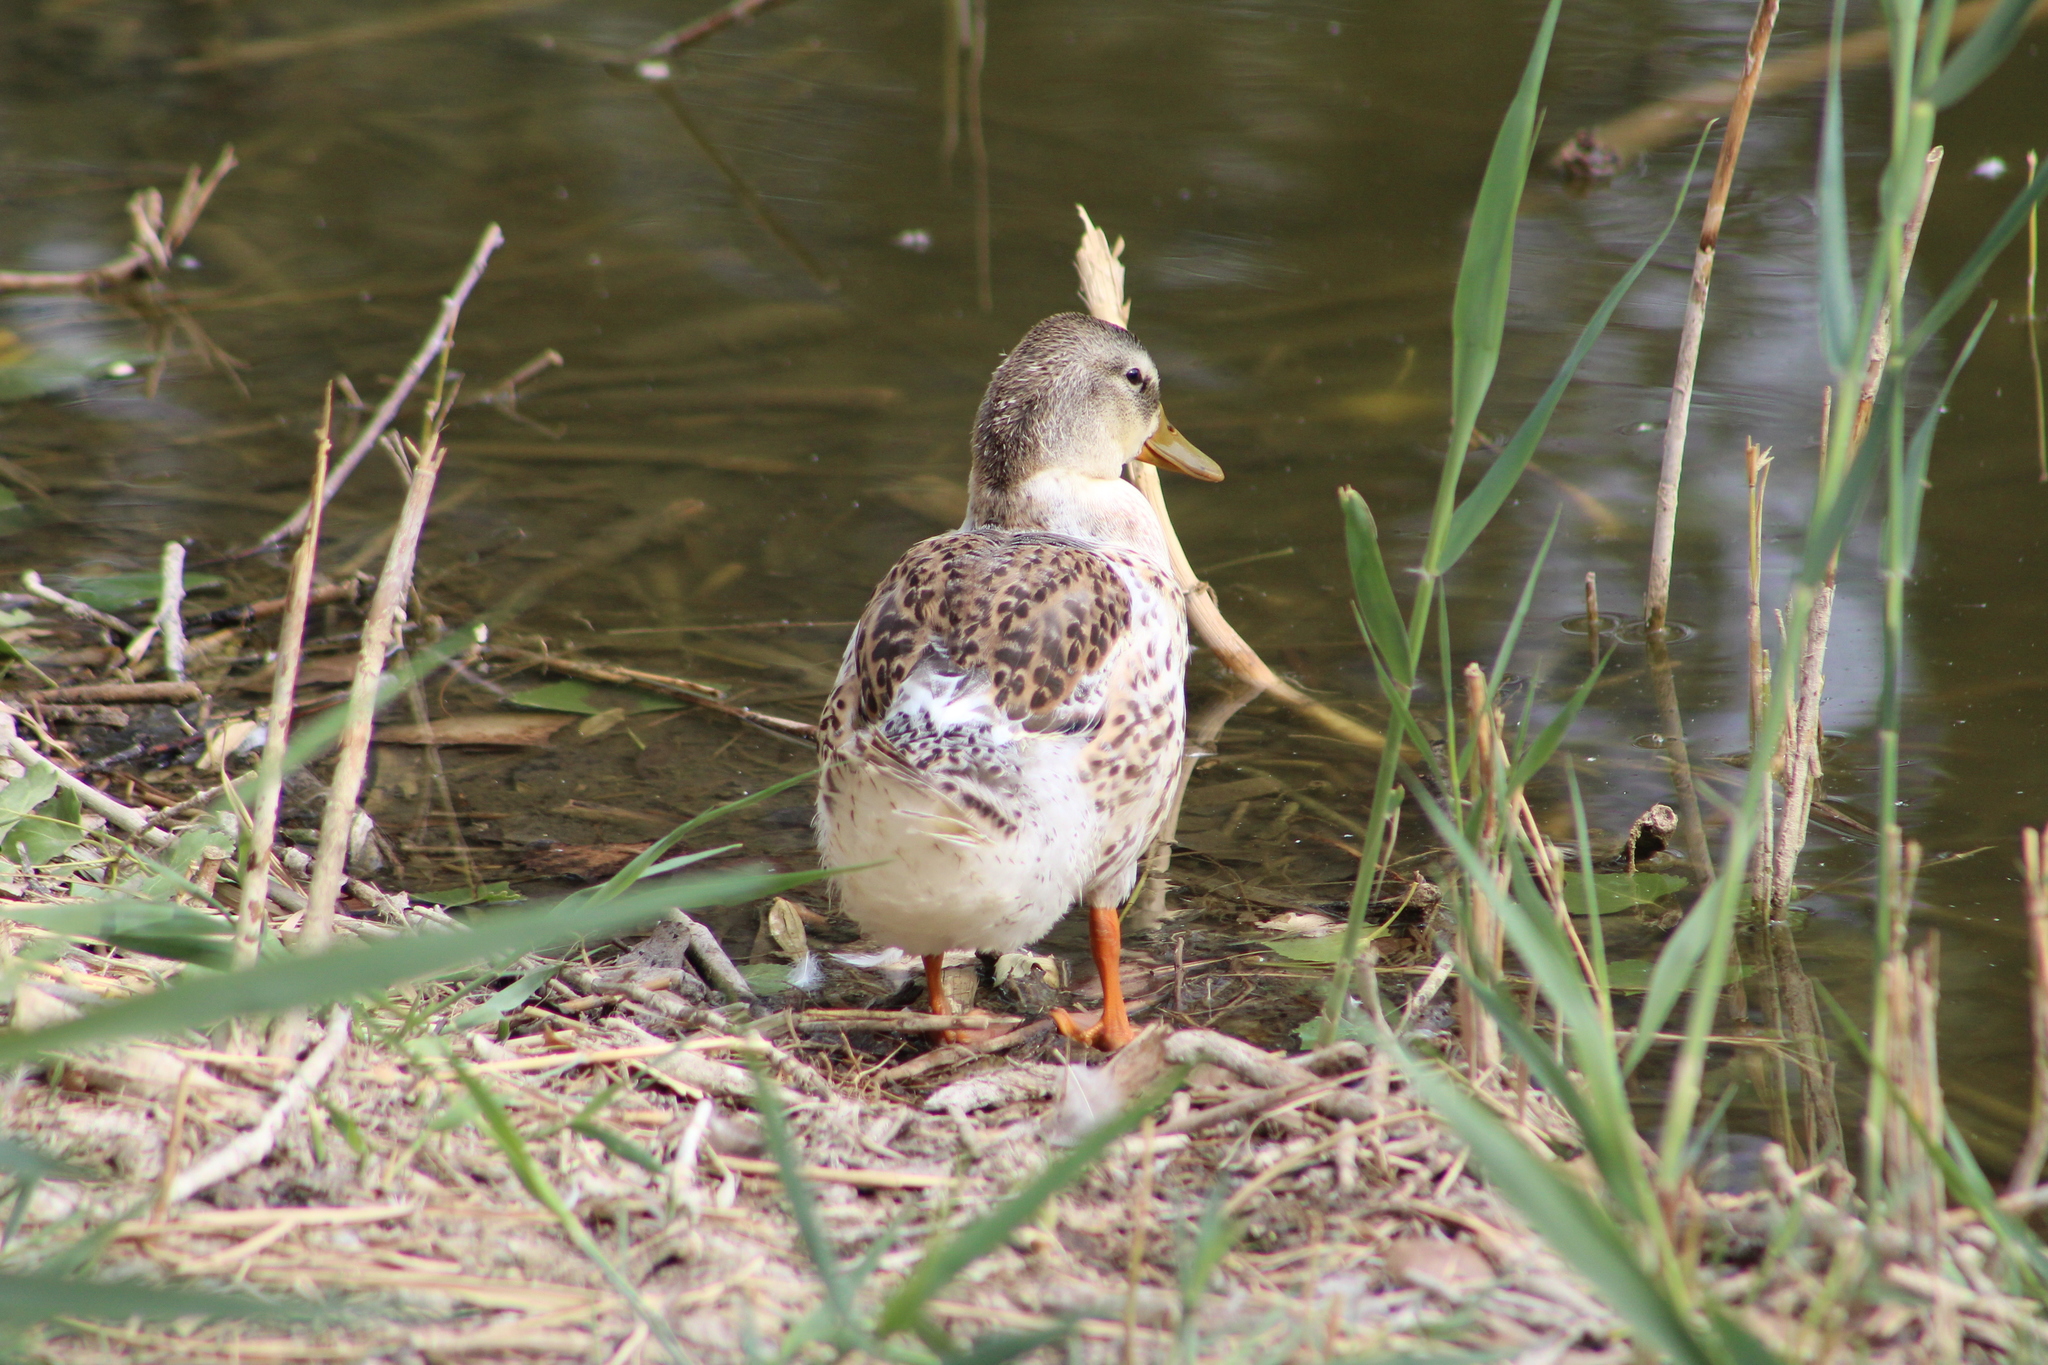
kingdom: Animalia
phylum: Chordata
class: Aves
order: Anseriformes
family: Anatidae
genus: Anas
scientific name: Anas platyrhynchos
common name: Mallard
